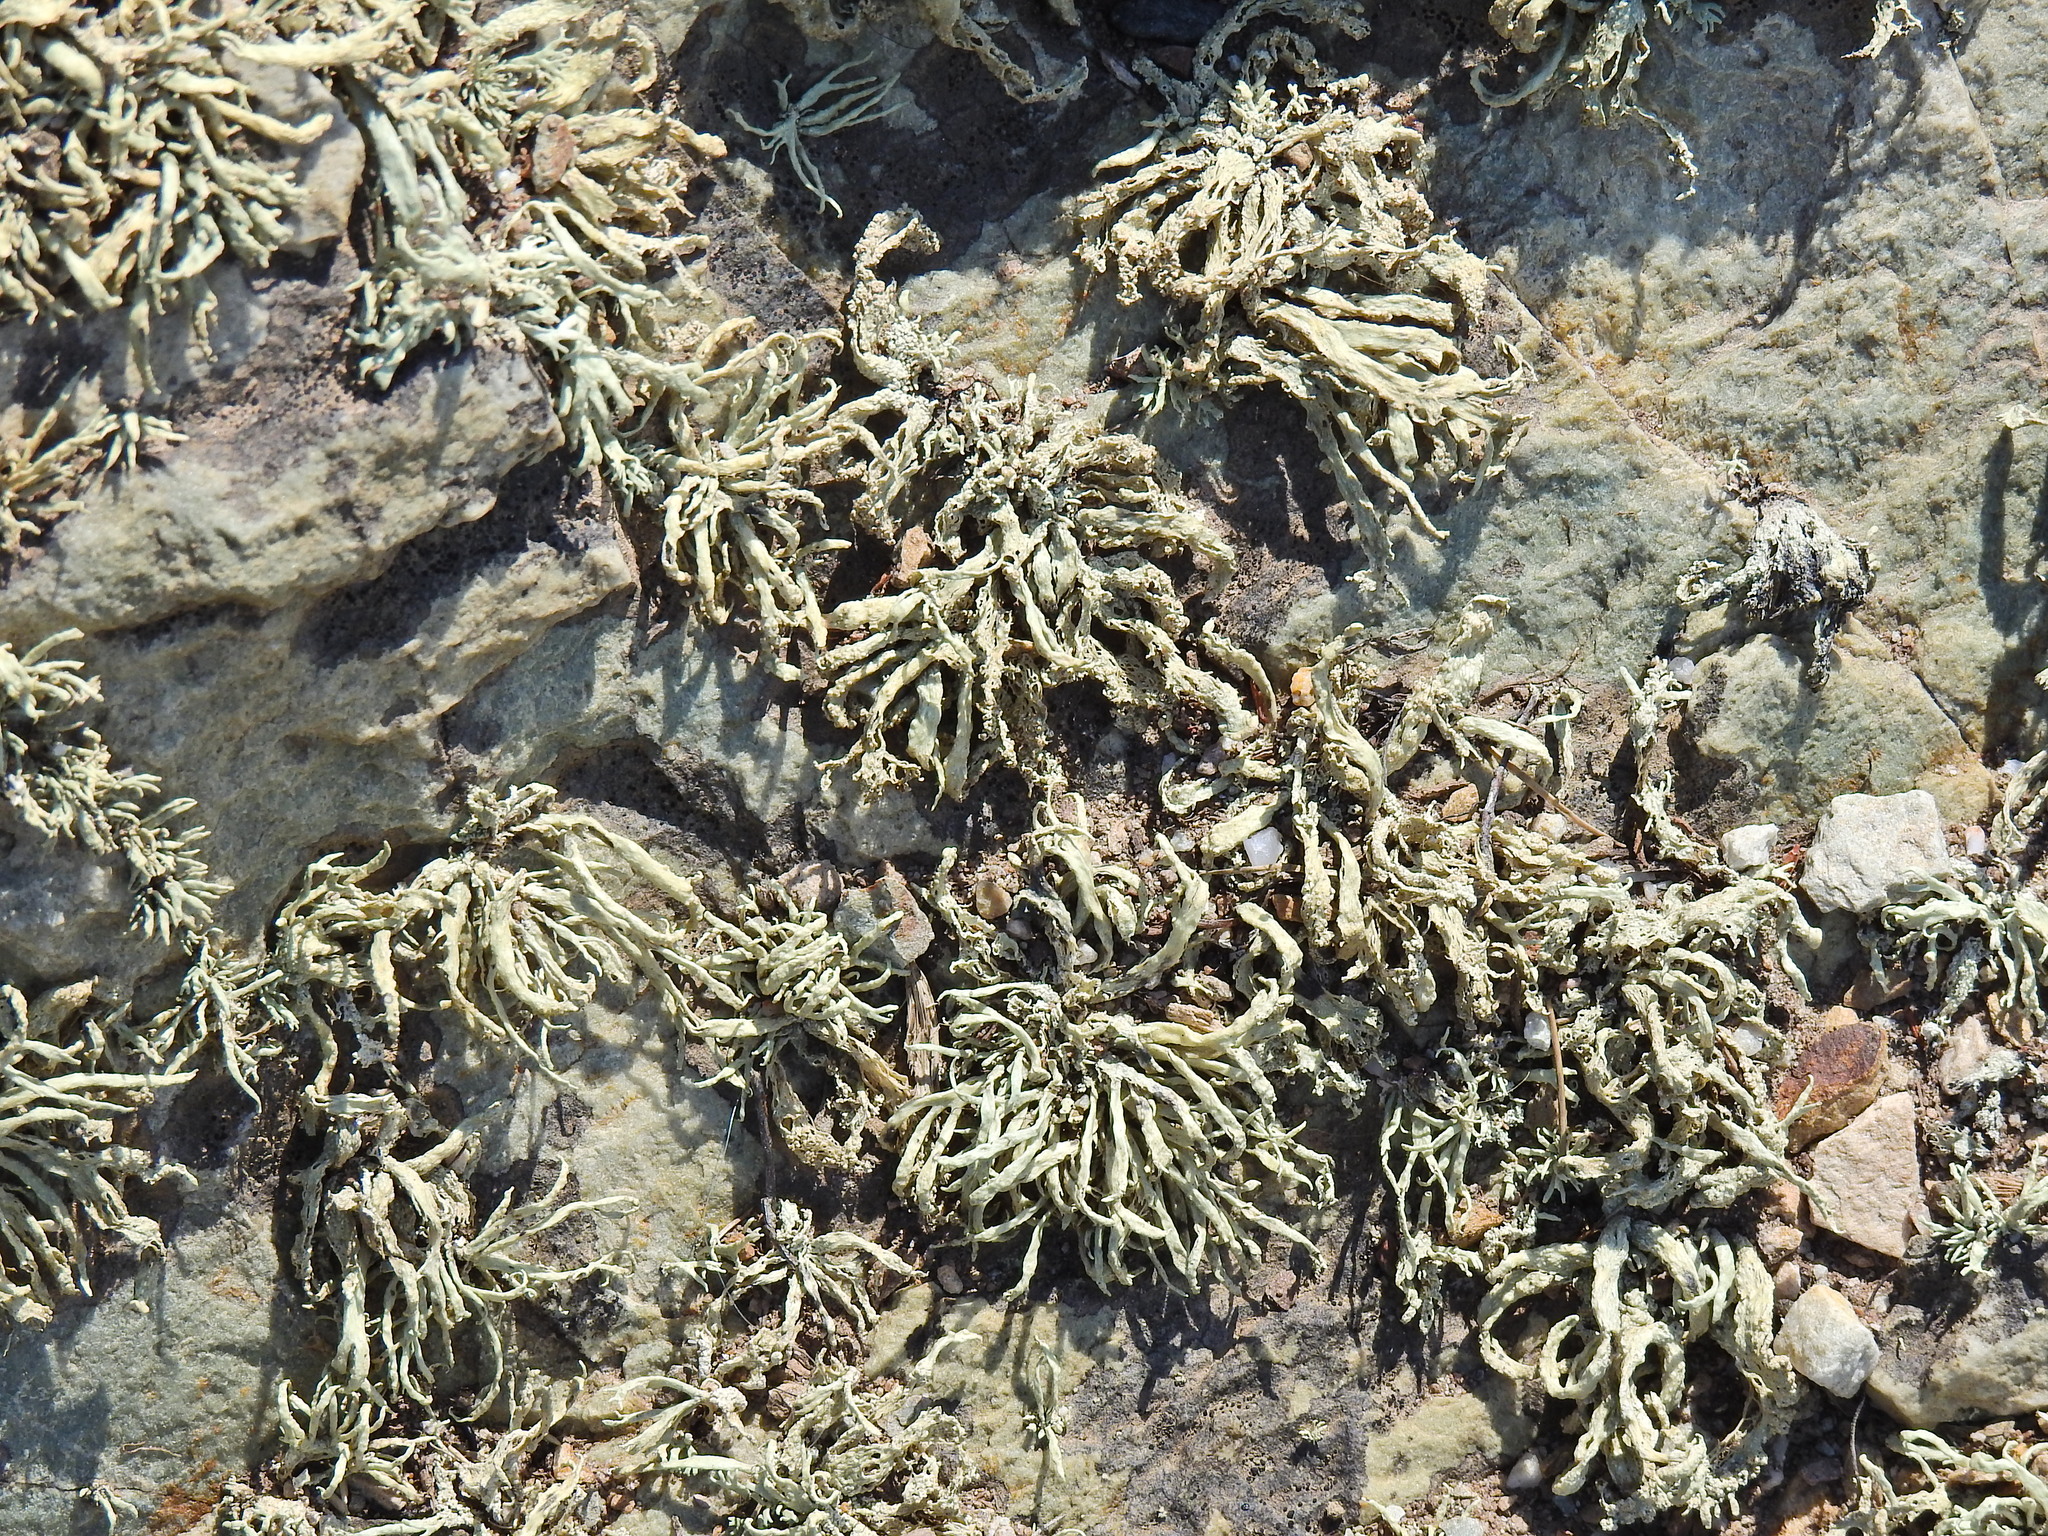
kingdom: Fungi
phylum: Ascomycota
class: Lecanoromycetes
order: Lecanorales
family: Ramalinaceae
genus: Ramalina
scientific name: Ramalina siliquosa
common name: Sea ivory
